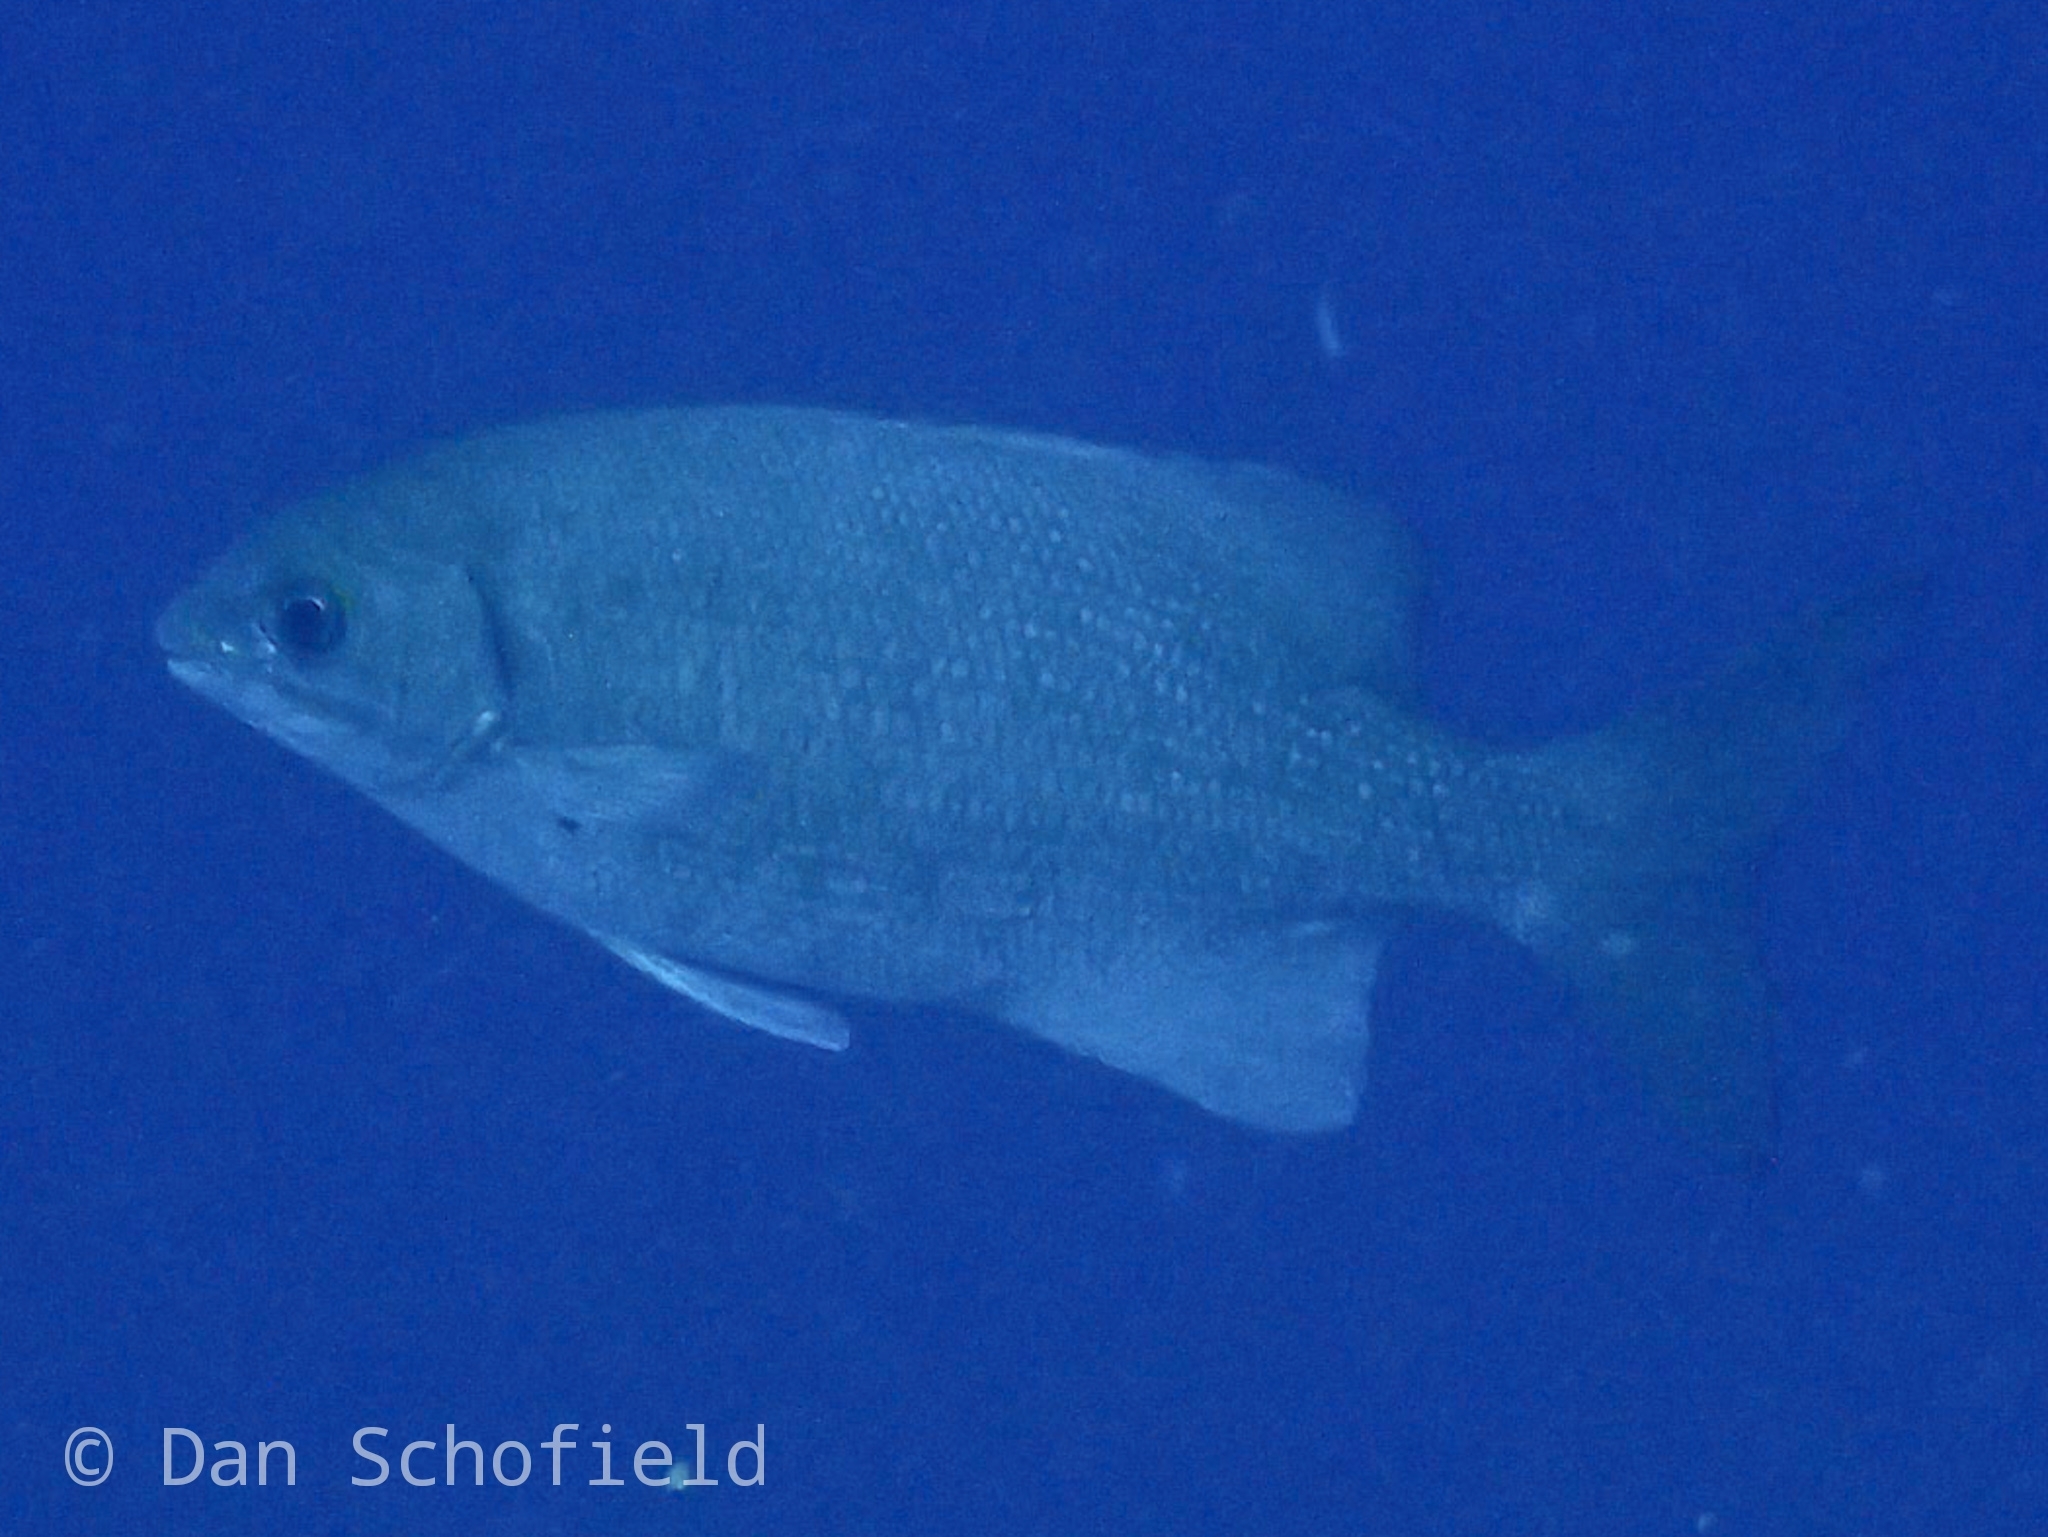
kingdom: Animalia
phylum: Chordata
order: Perciformes
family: Kyphosidae
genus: Kyphosus
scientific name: Kyphosus cinerascens
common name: Topsail drummer
